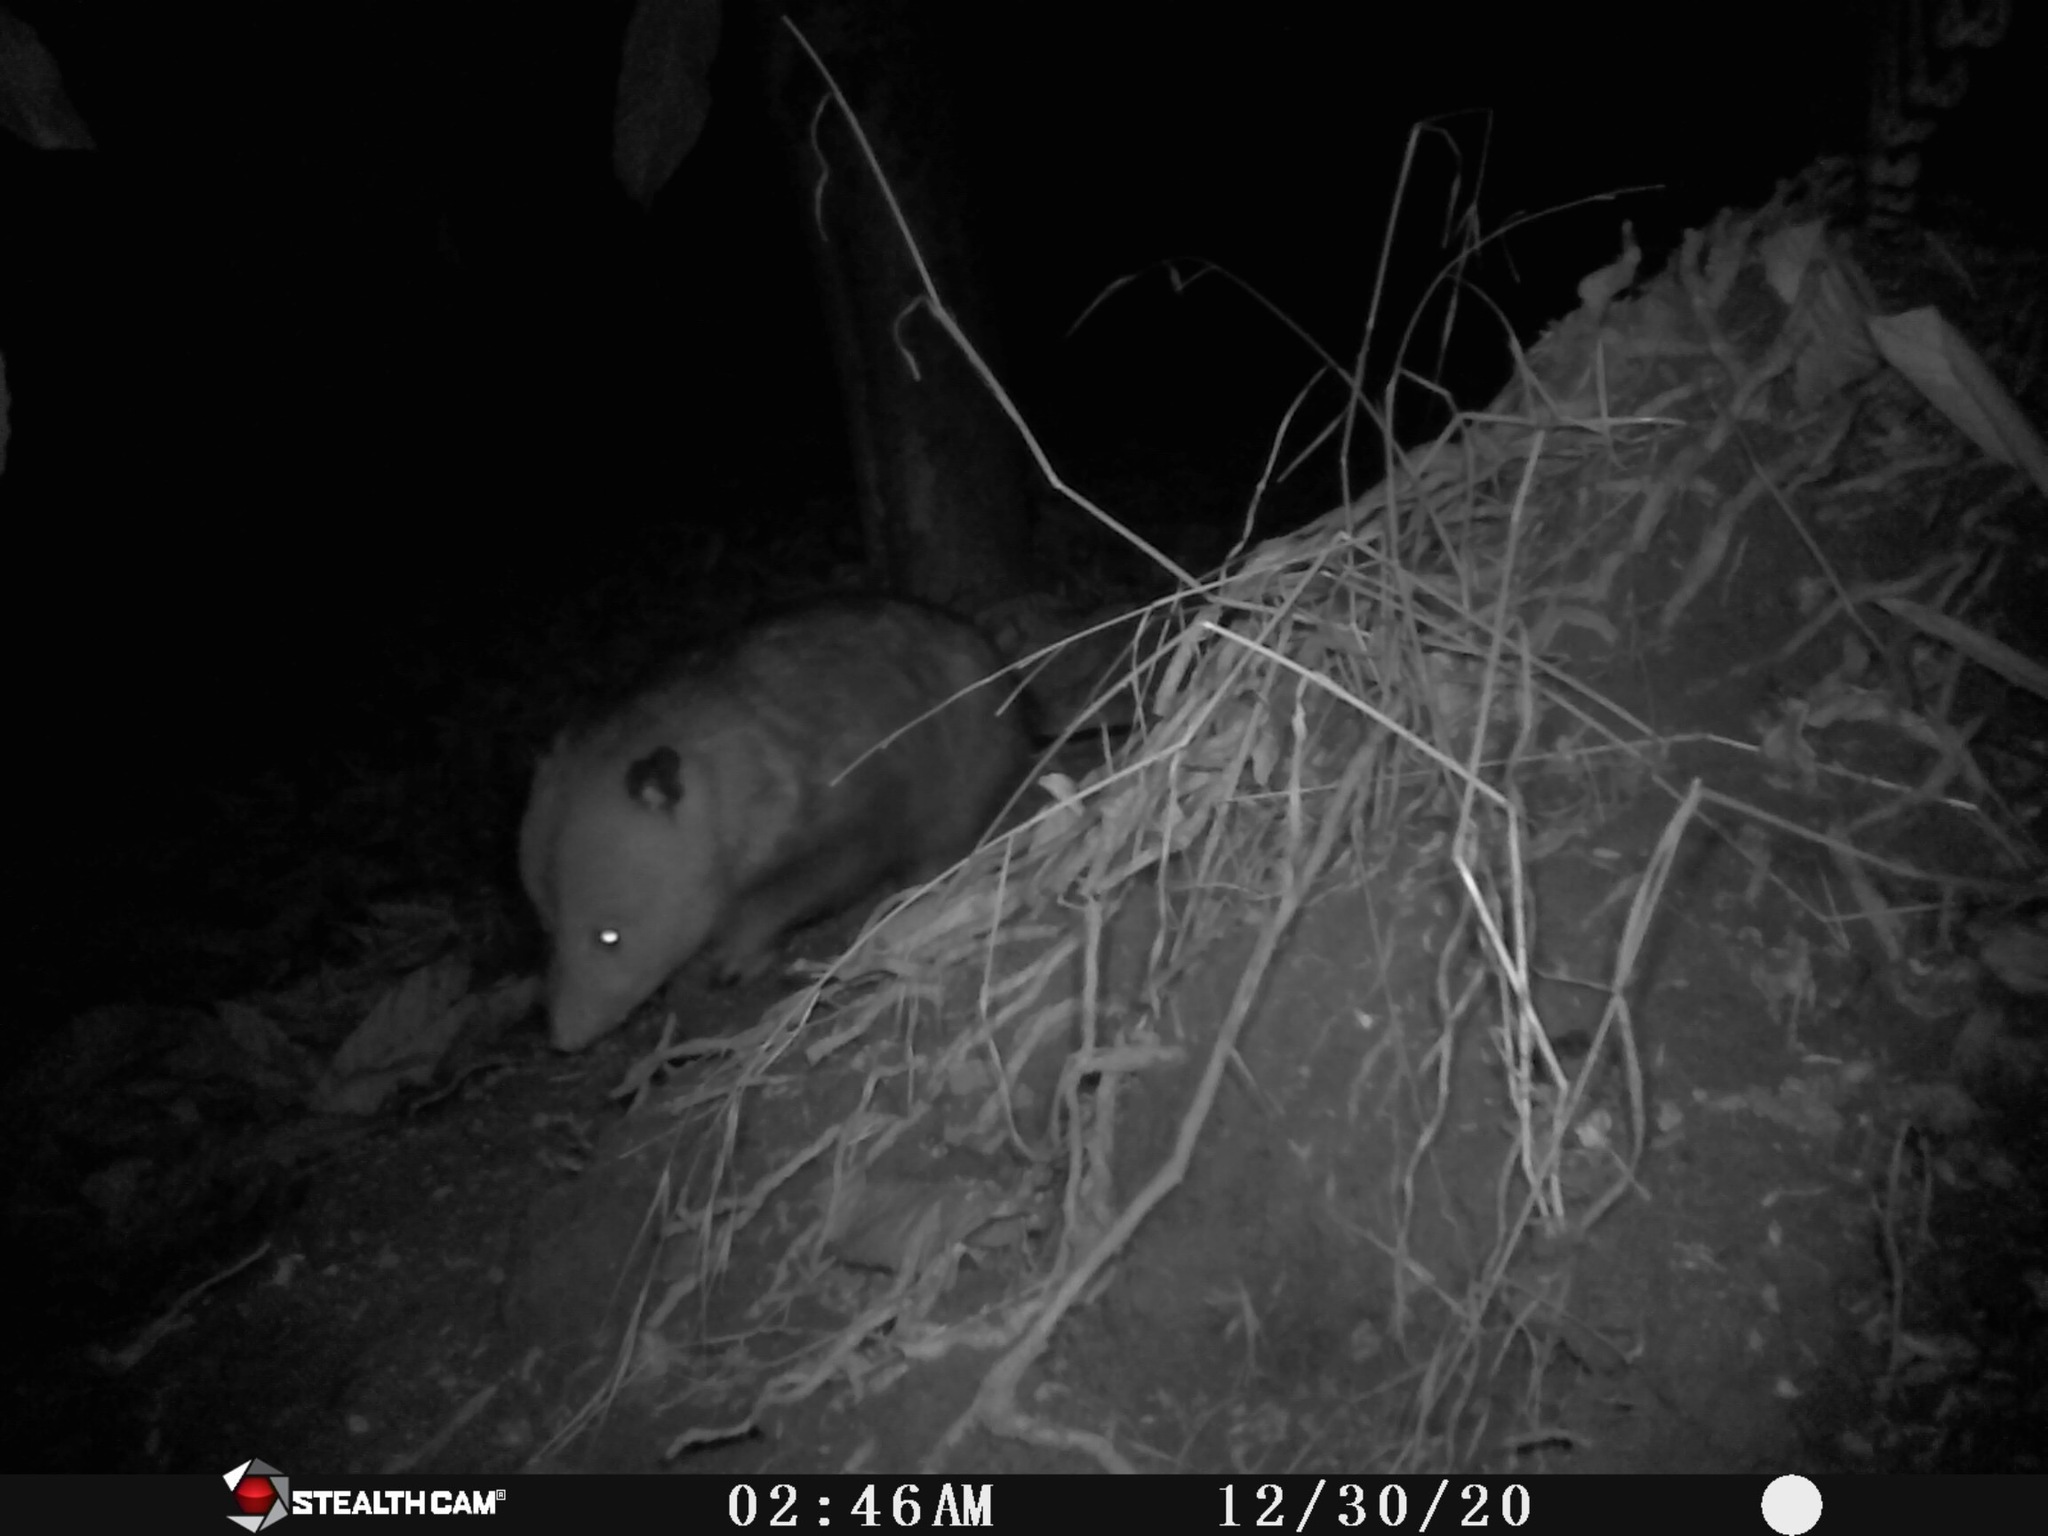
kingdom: Animalia
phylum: Chordata
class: Mammalia
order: Didelphimorphia
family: Didelphidae
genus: Didelphis
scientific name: Didelphis virginiana
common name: Virginia opossum
